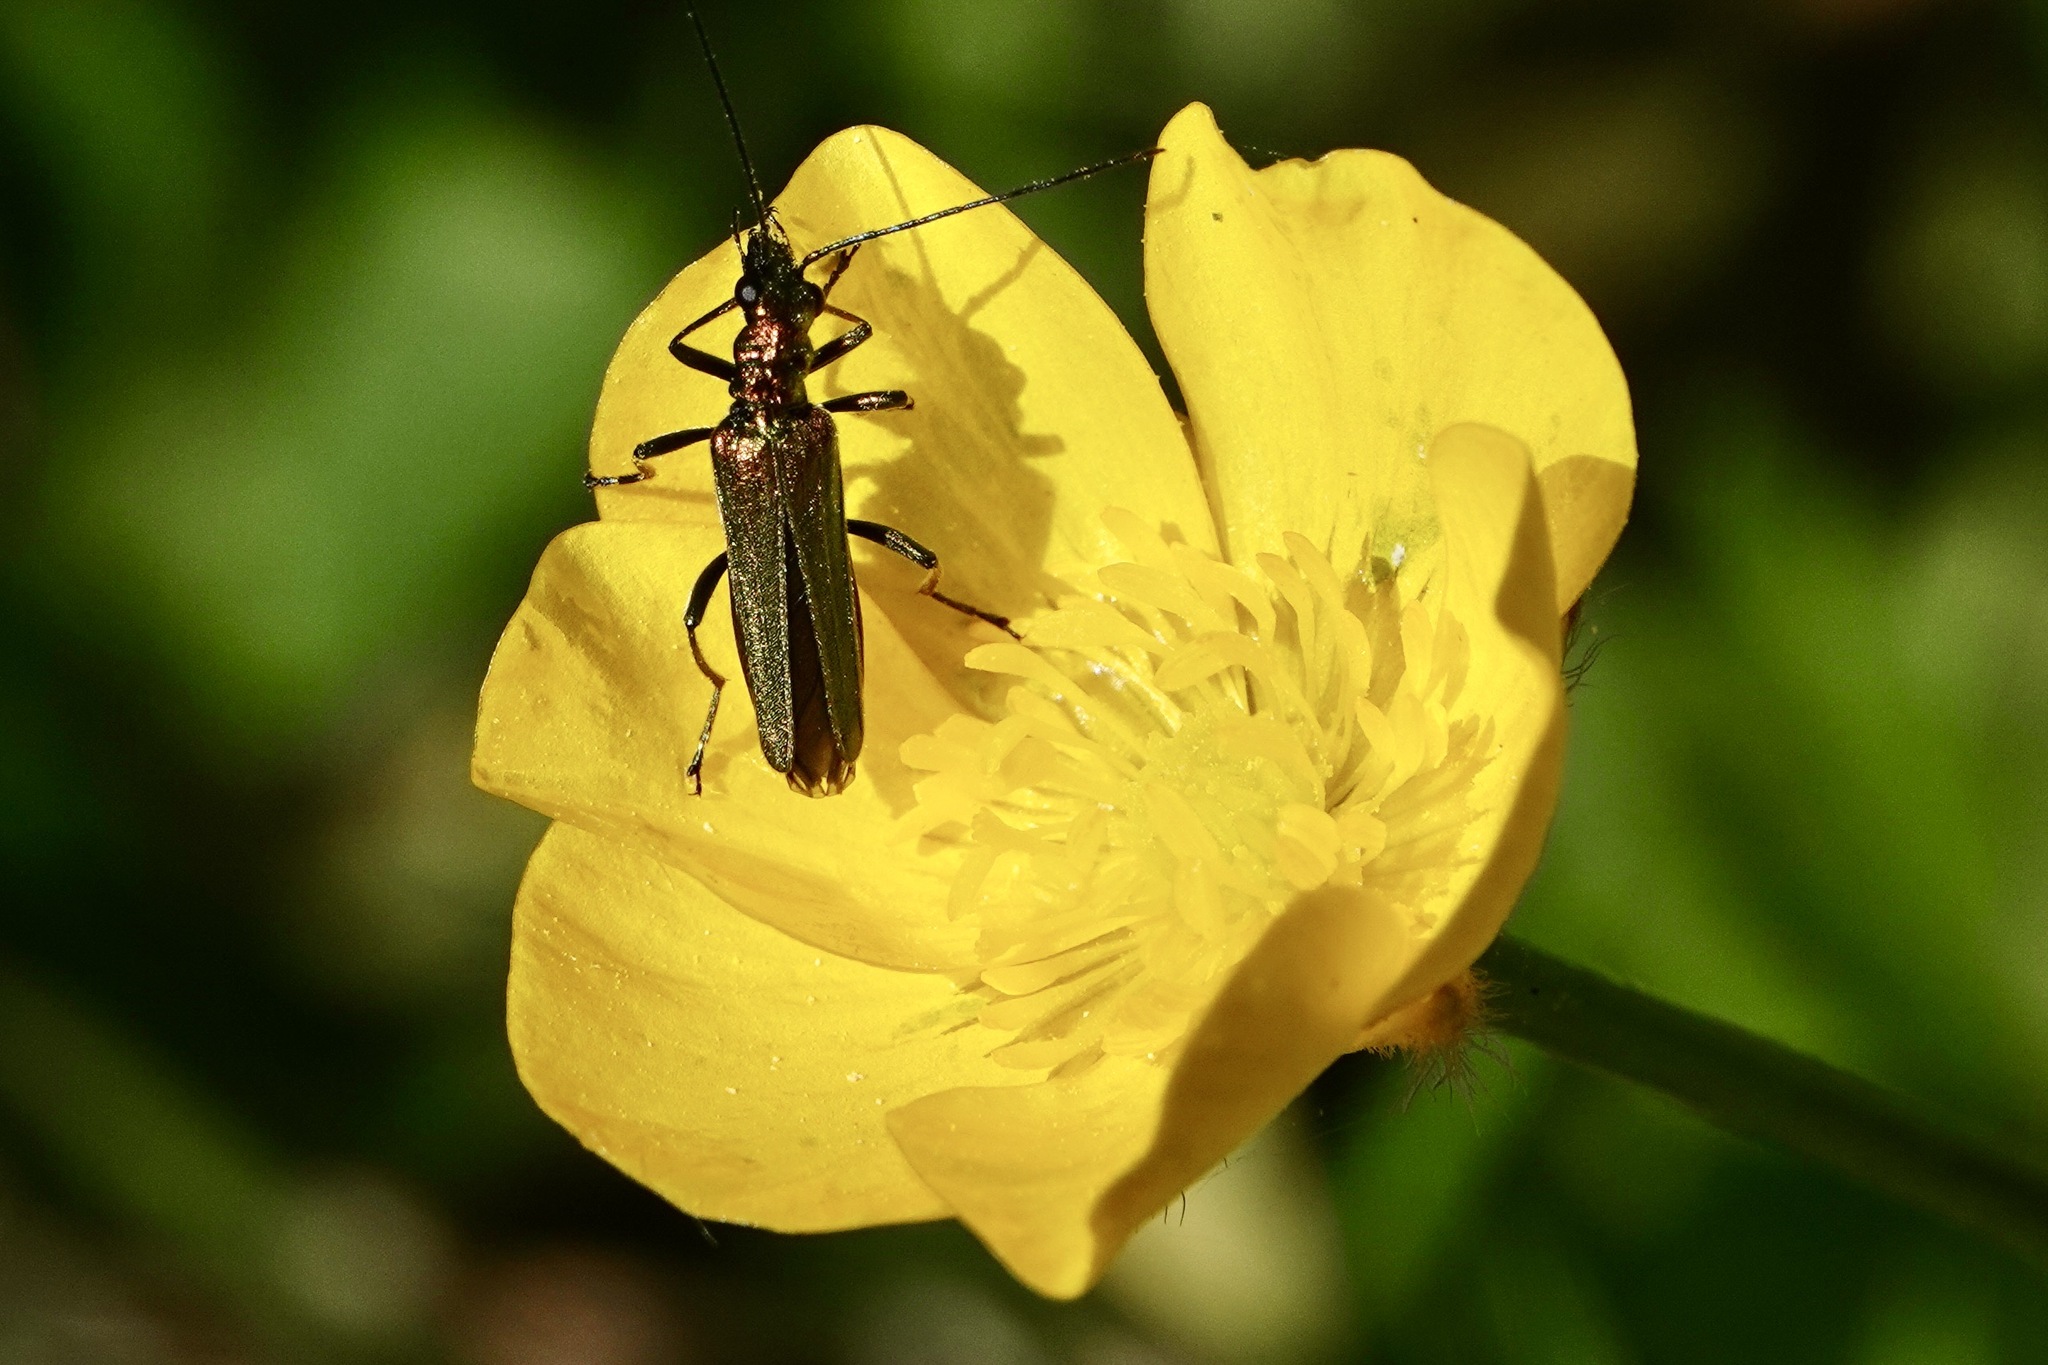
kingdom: Animalia
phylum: Arthropoda
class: Insecta
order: Coleoptera
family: Oedemeridae
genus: Oedemera
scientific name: Oedemera nobilis
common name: Swollen-thighed beetle
